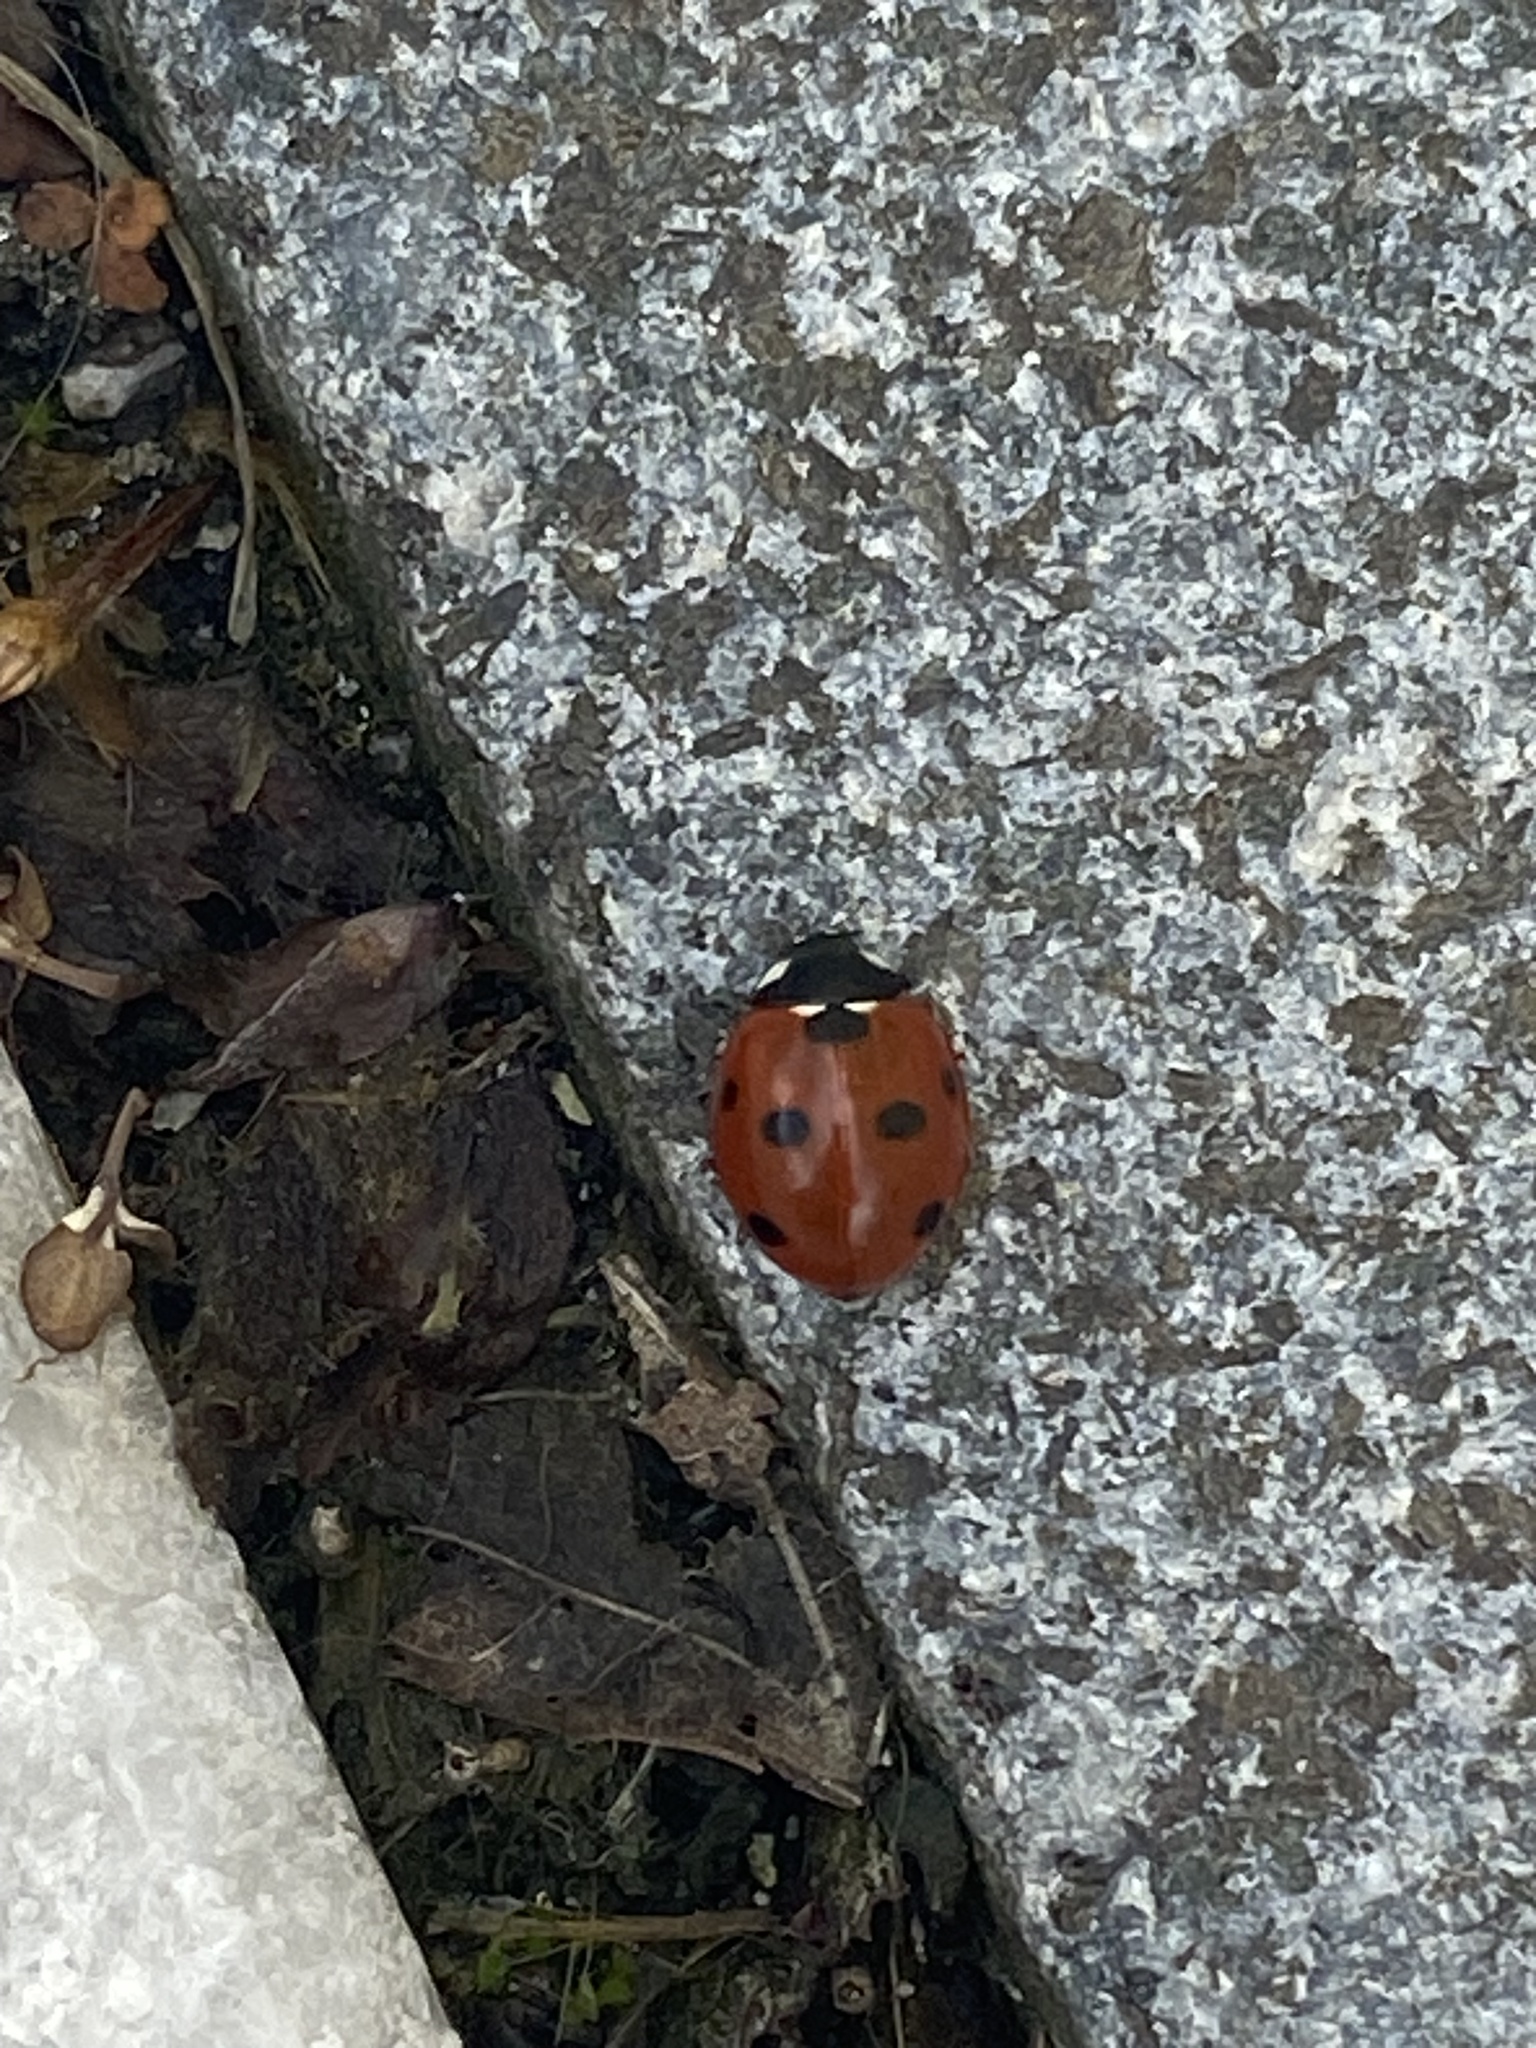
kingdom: Animalia
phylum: Arthropoda
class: Insecta
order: Coleoptera
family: Coccinellidae
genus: Coccinella
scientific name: Coccinella septempunctata
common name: Sevenspotted lady beetle
